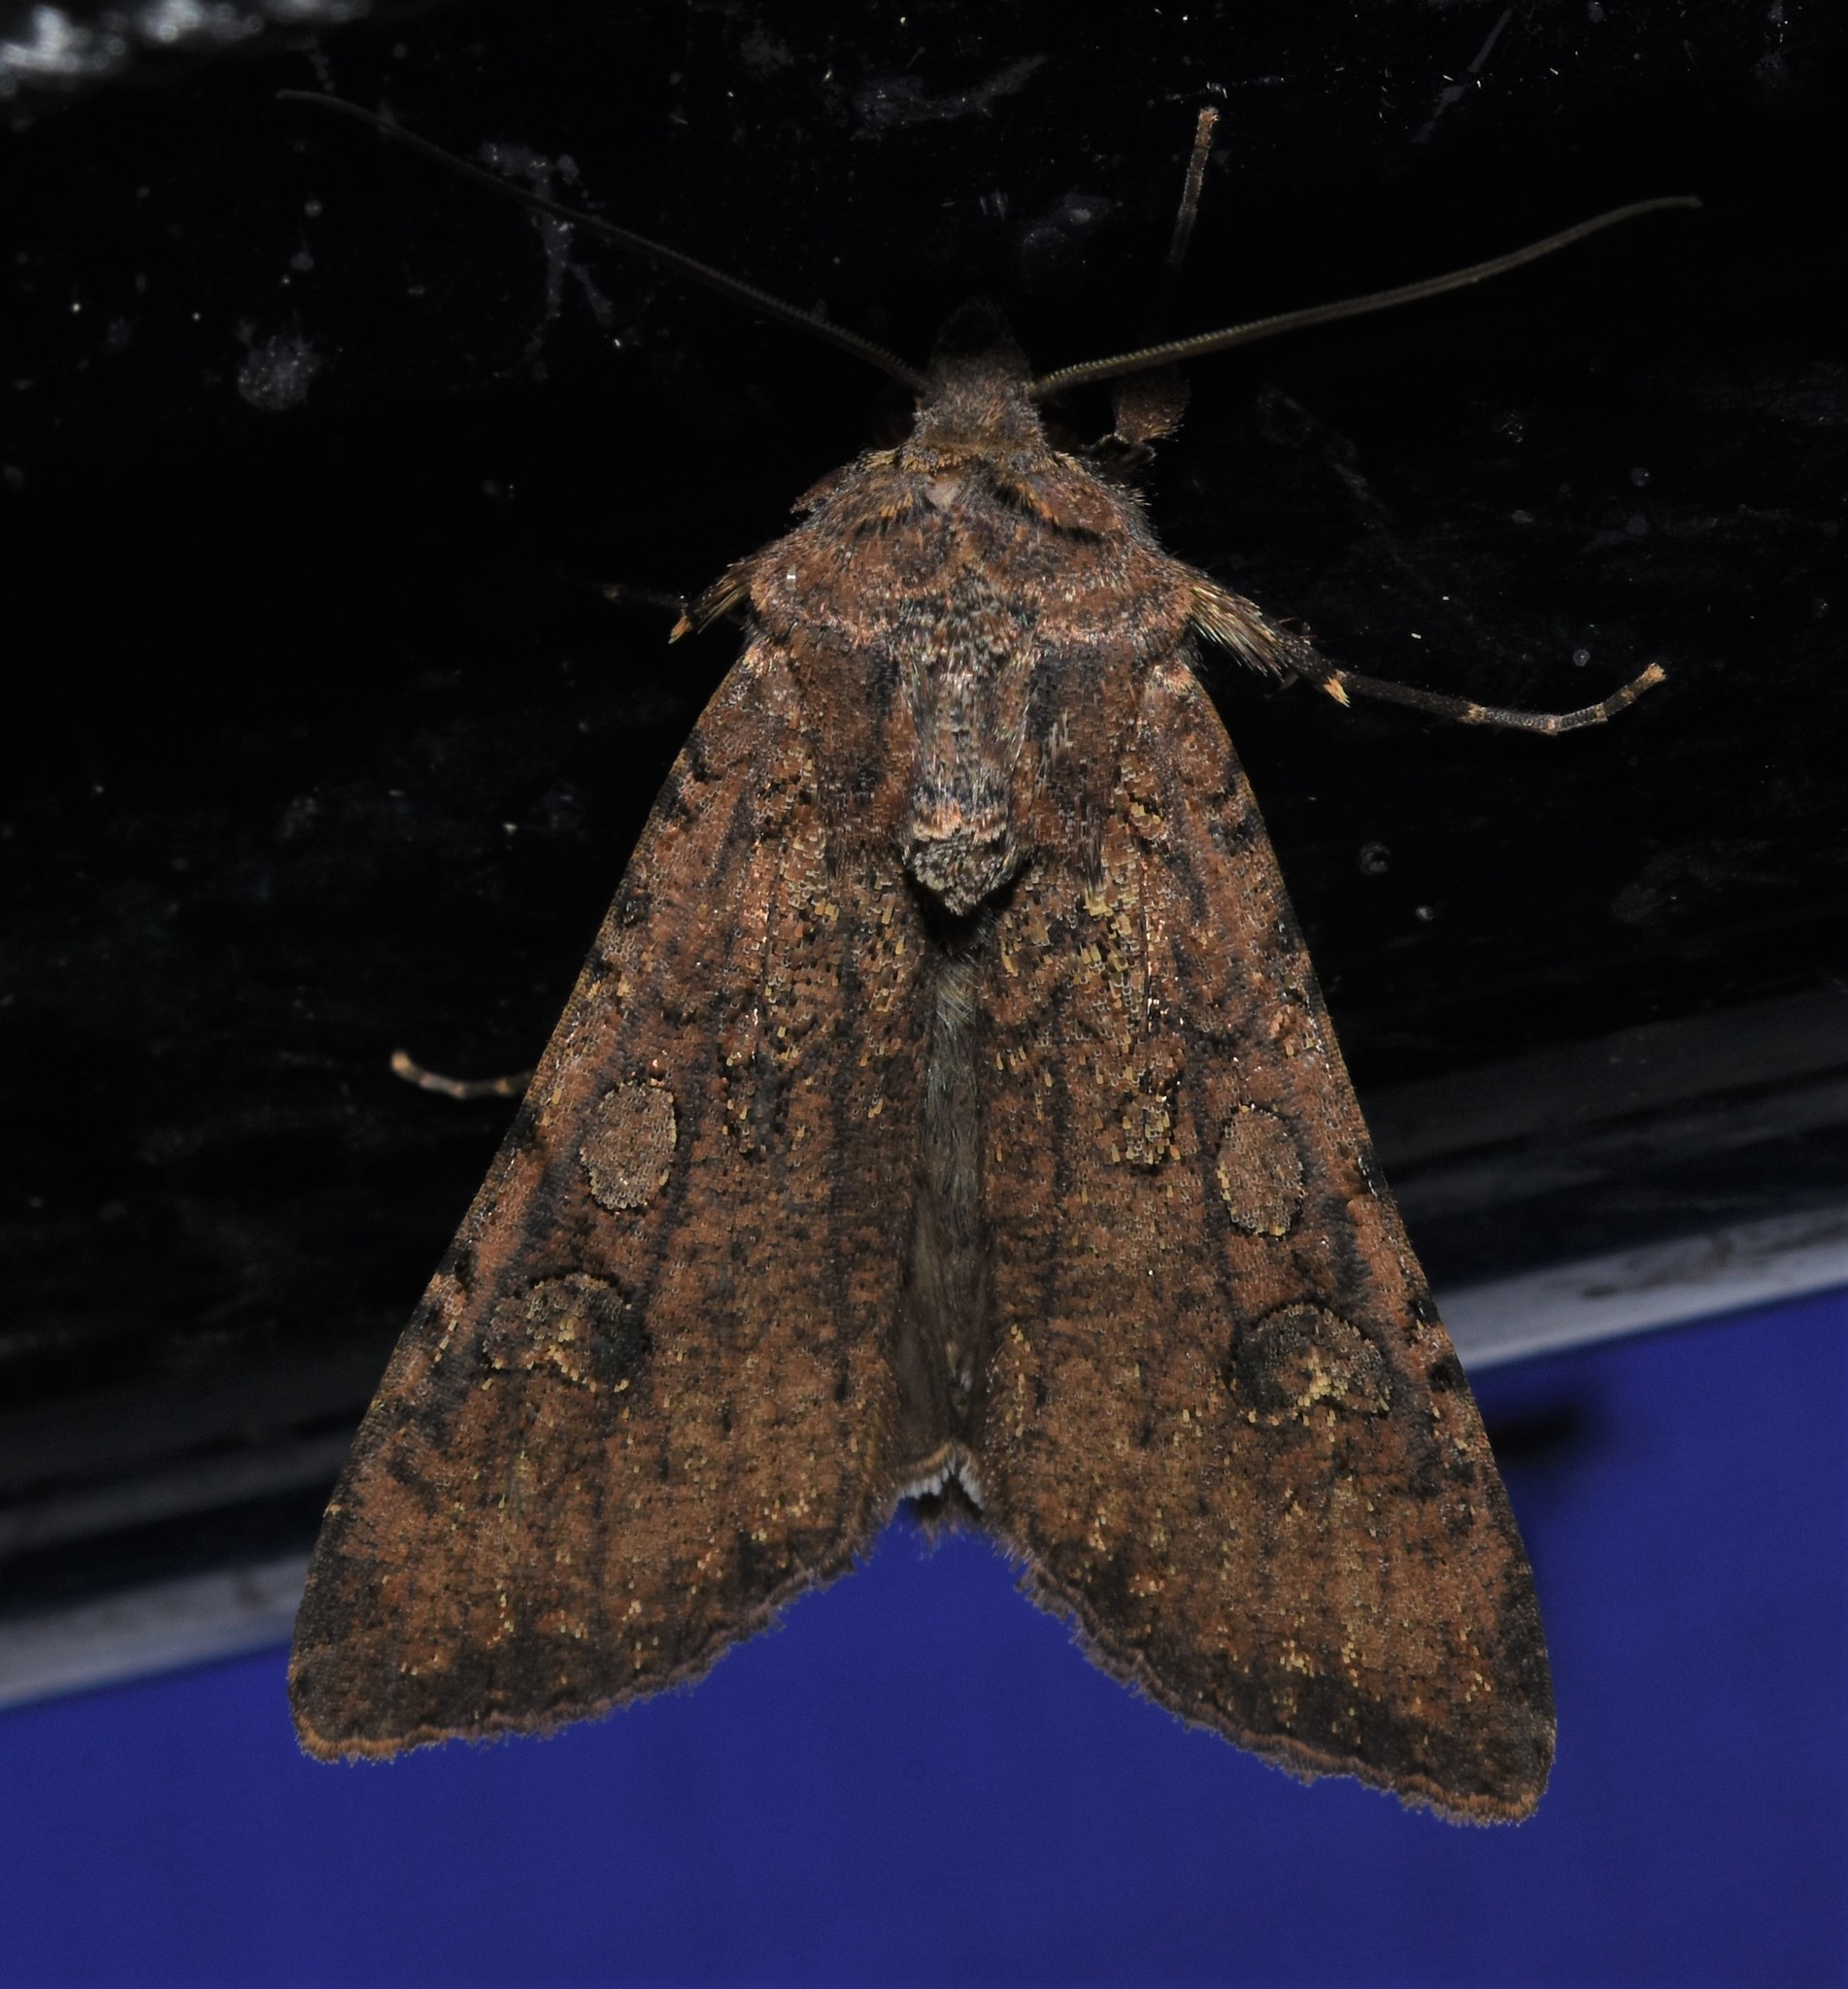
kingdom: Animalia
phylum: Arthropoda
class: Insecta
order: Lepidoptera
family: Noctuidae
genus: Peridroma
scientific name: Peridroma saucia
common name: Pearly underwing
